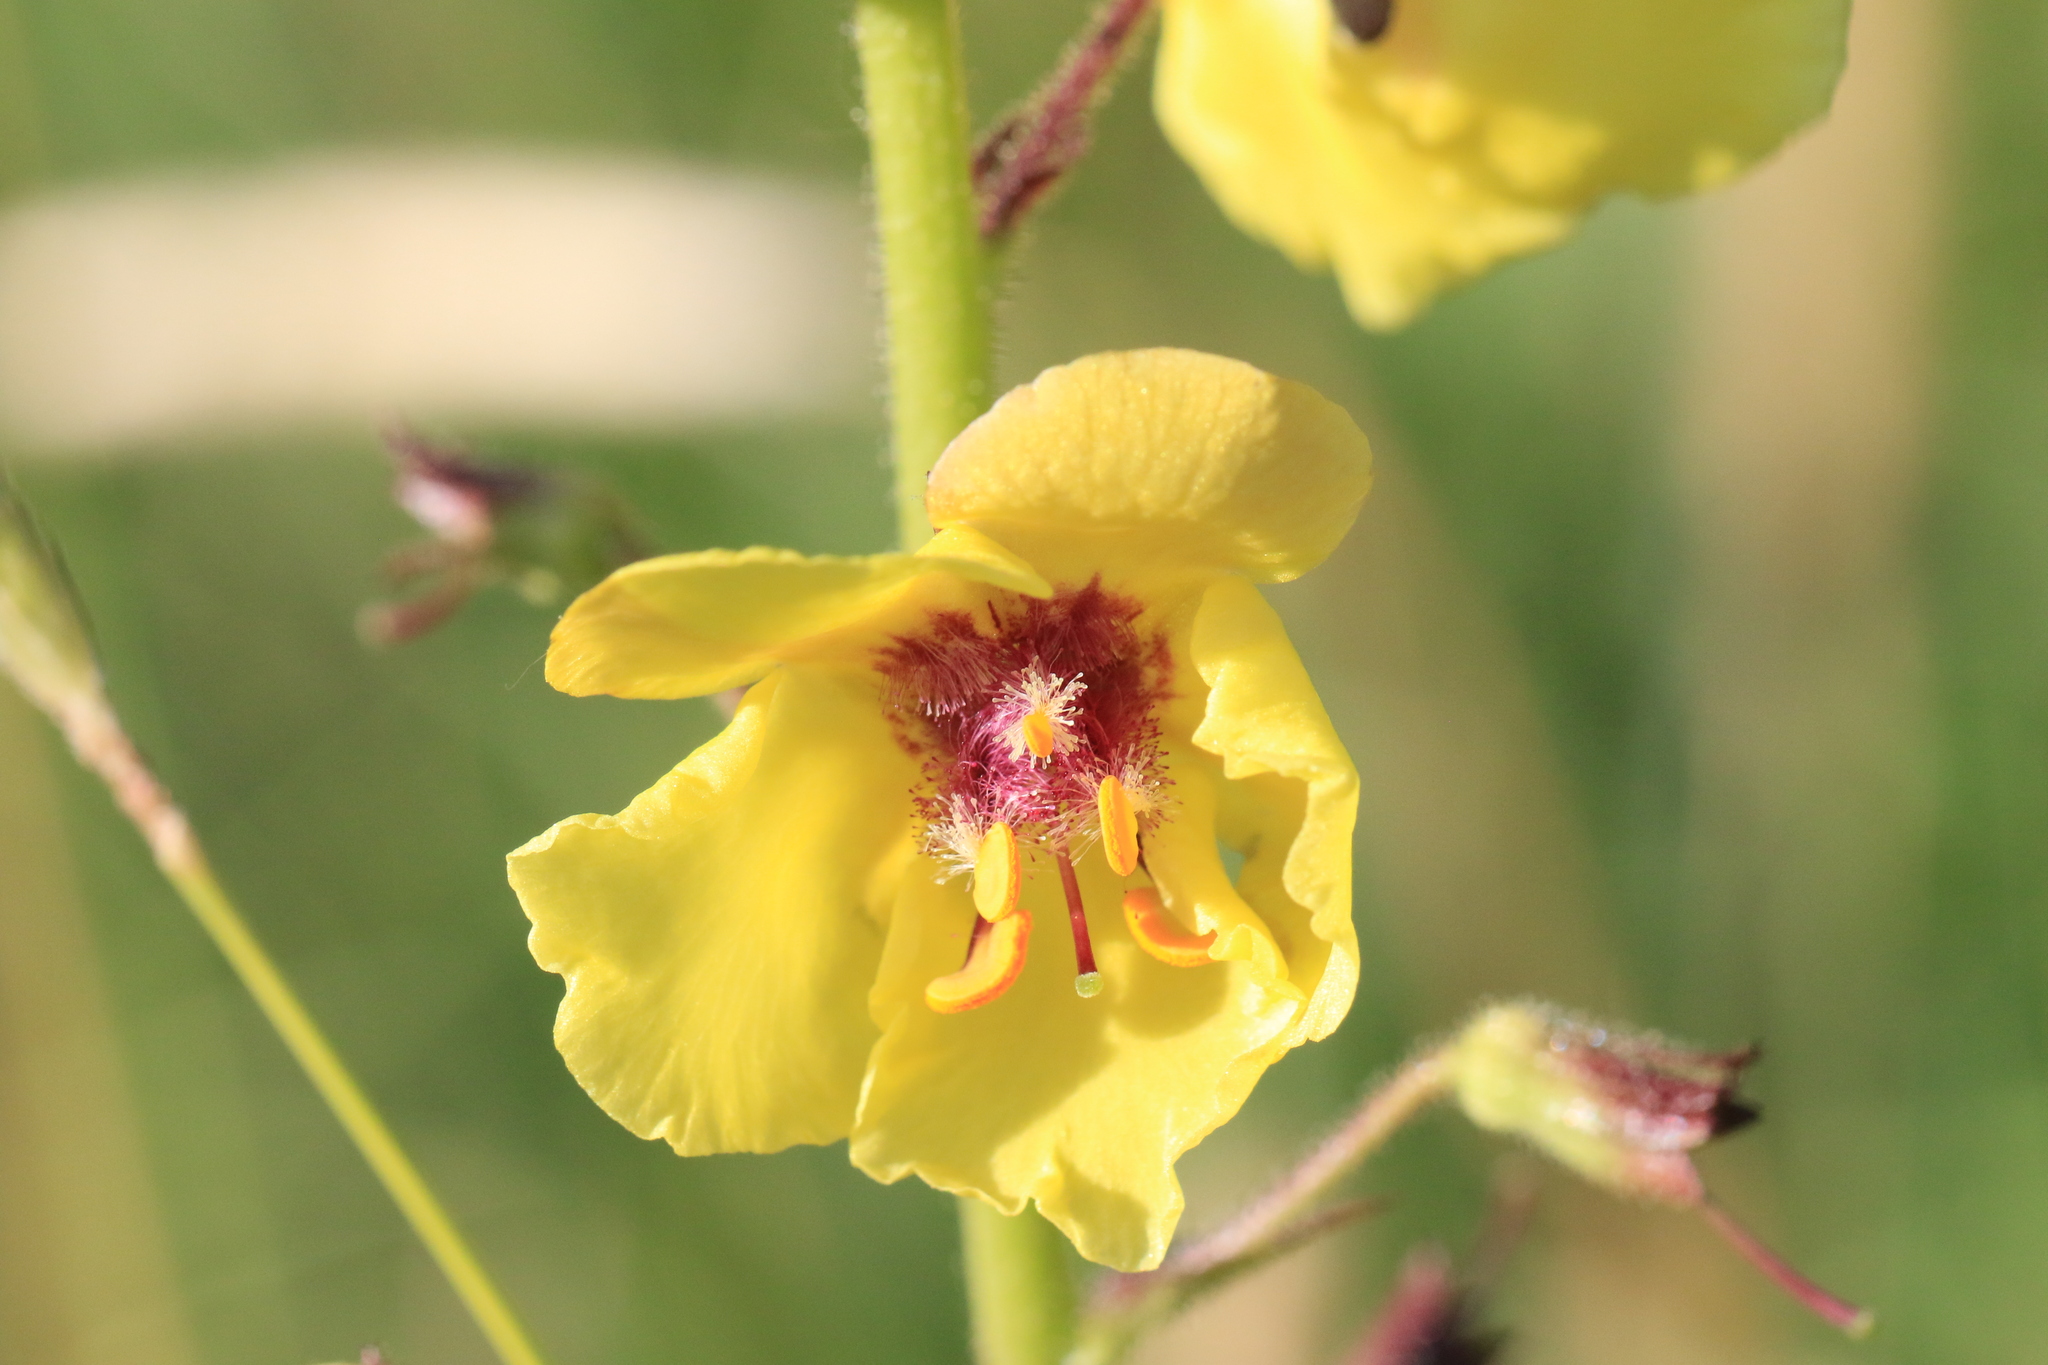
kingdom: Plantae
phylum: Tracheophyta
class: Magnoliopsida
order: Lamiales
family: Scrophulariaceae
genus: Verbascum
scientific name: Verbascum blattaria
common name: Moth mullein
